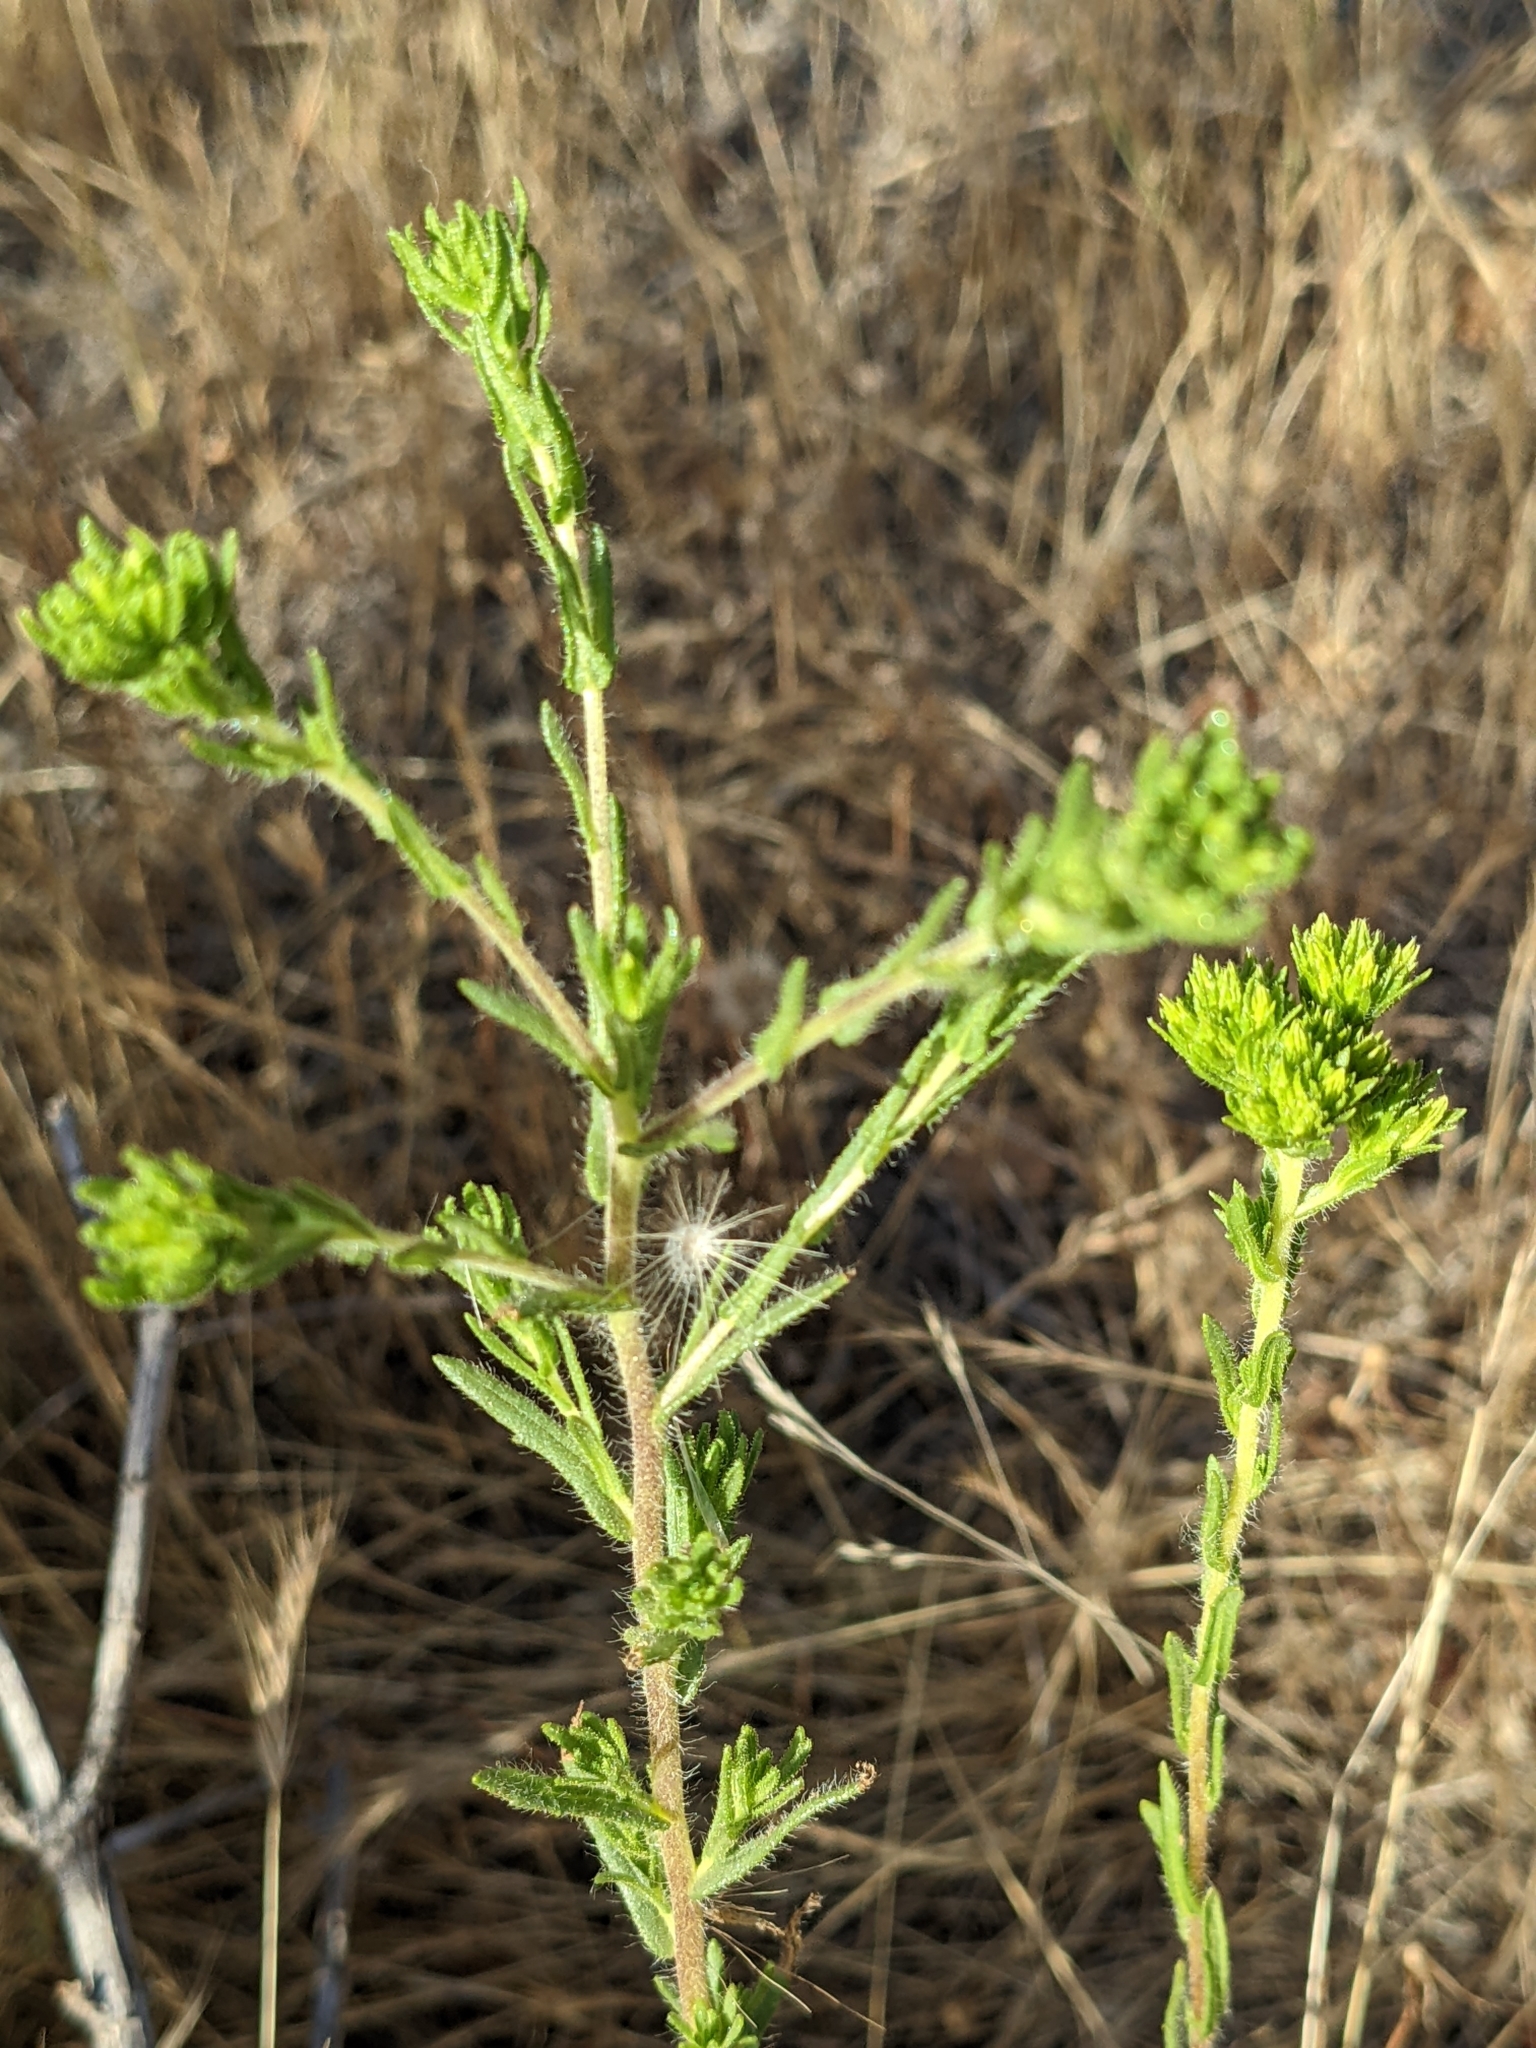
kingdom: Plantae
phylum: Tracheophyta
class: Magnoliopsida
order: Asterales
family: Asteraceae
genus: Deinandra
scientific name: Deinandra fasciculata
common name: Clustered tarweed
